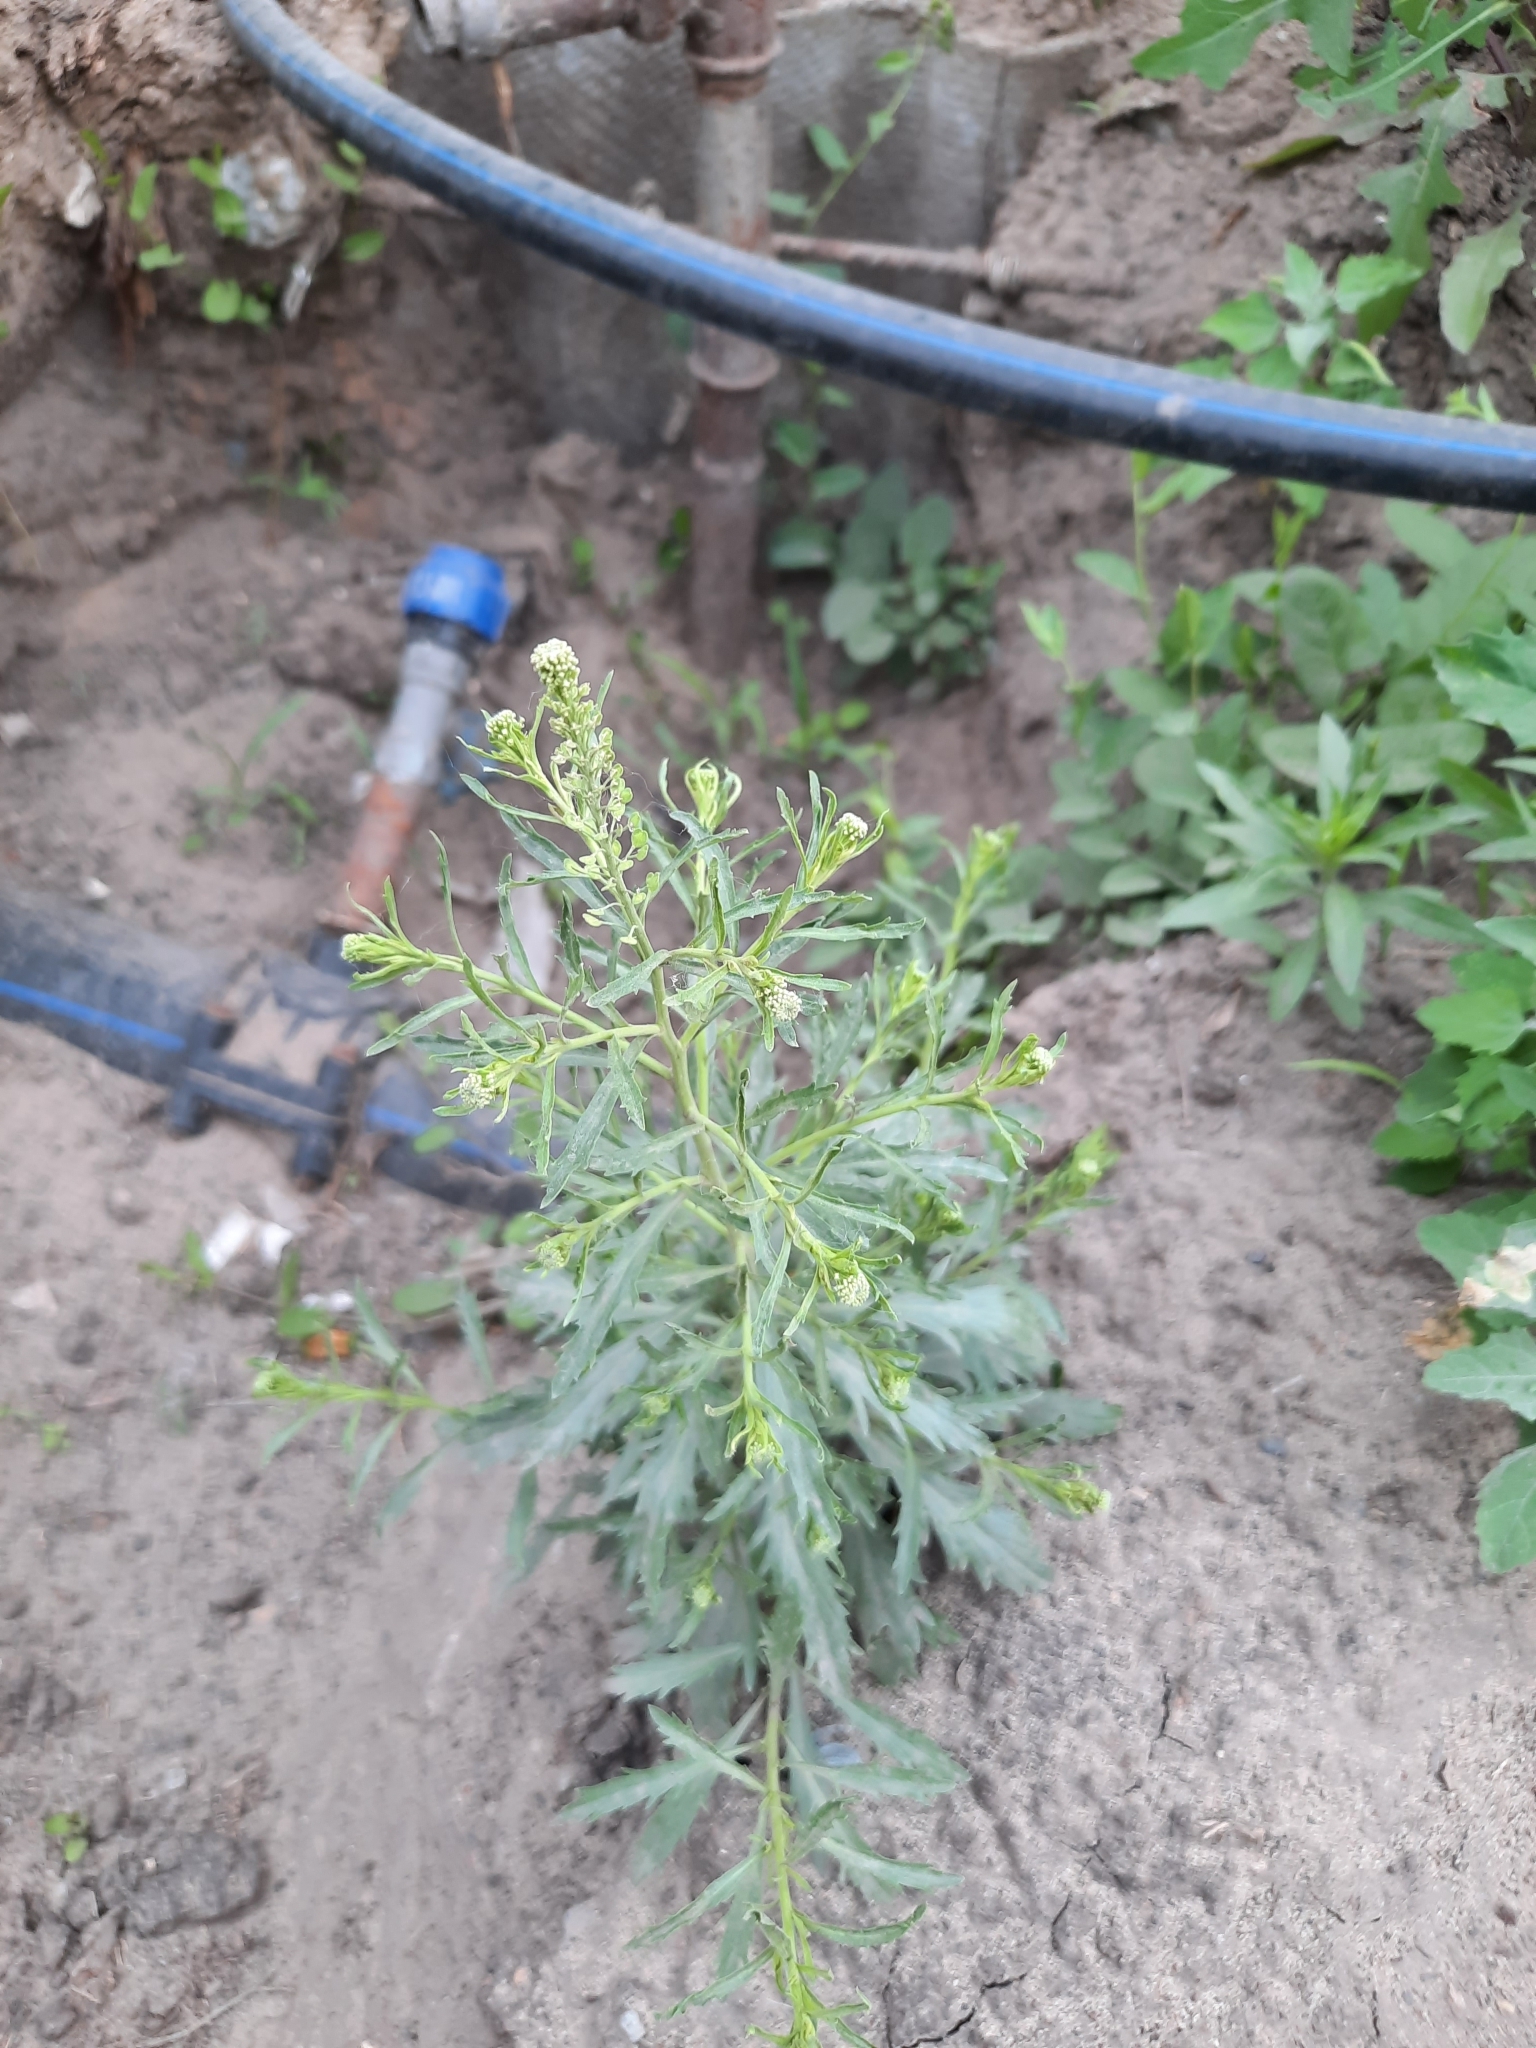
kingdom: Plantae
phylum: Tracheophyta
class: Magnoliopsida
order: Brassicales
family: Brassicaceae
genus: Lepidium
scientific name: Lepidium densiflorum
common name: Miner's pepperwort
